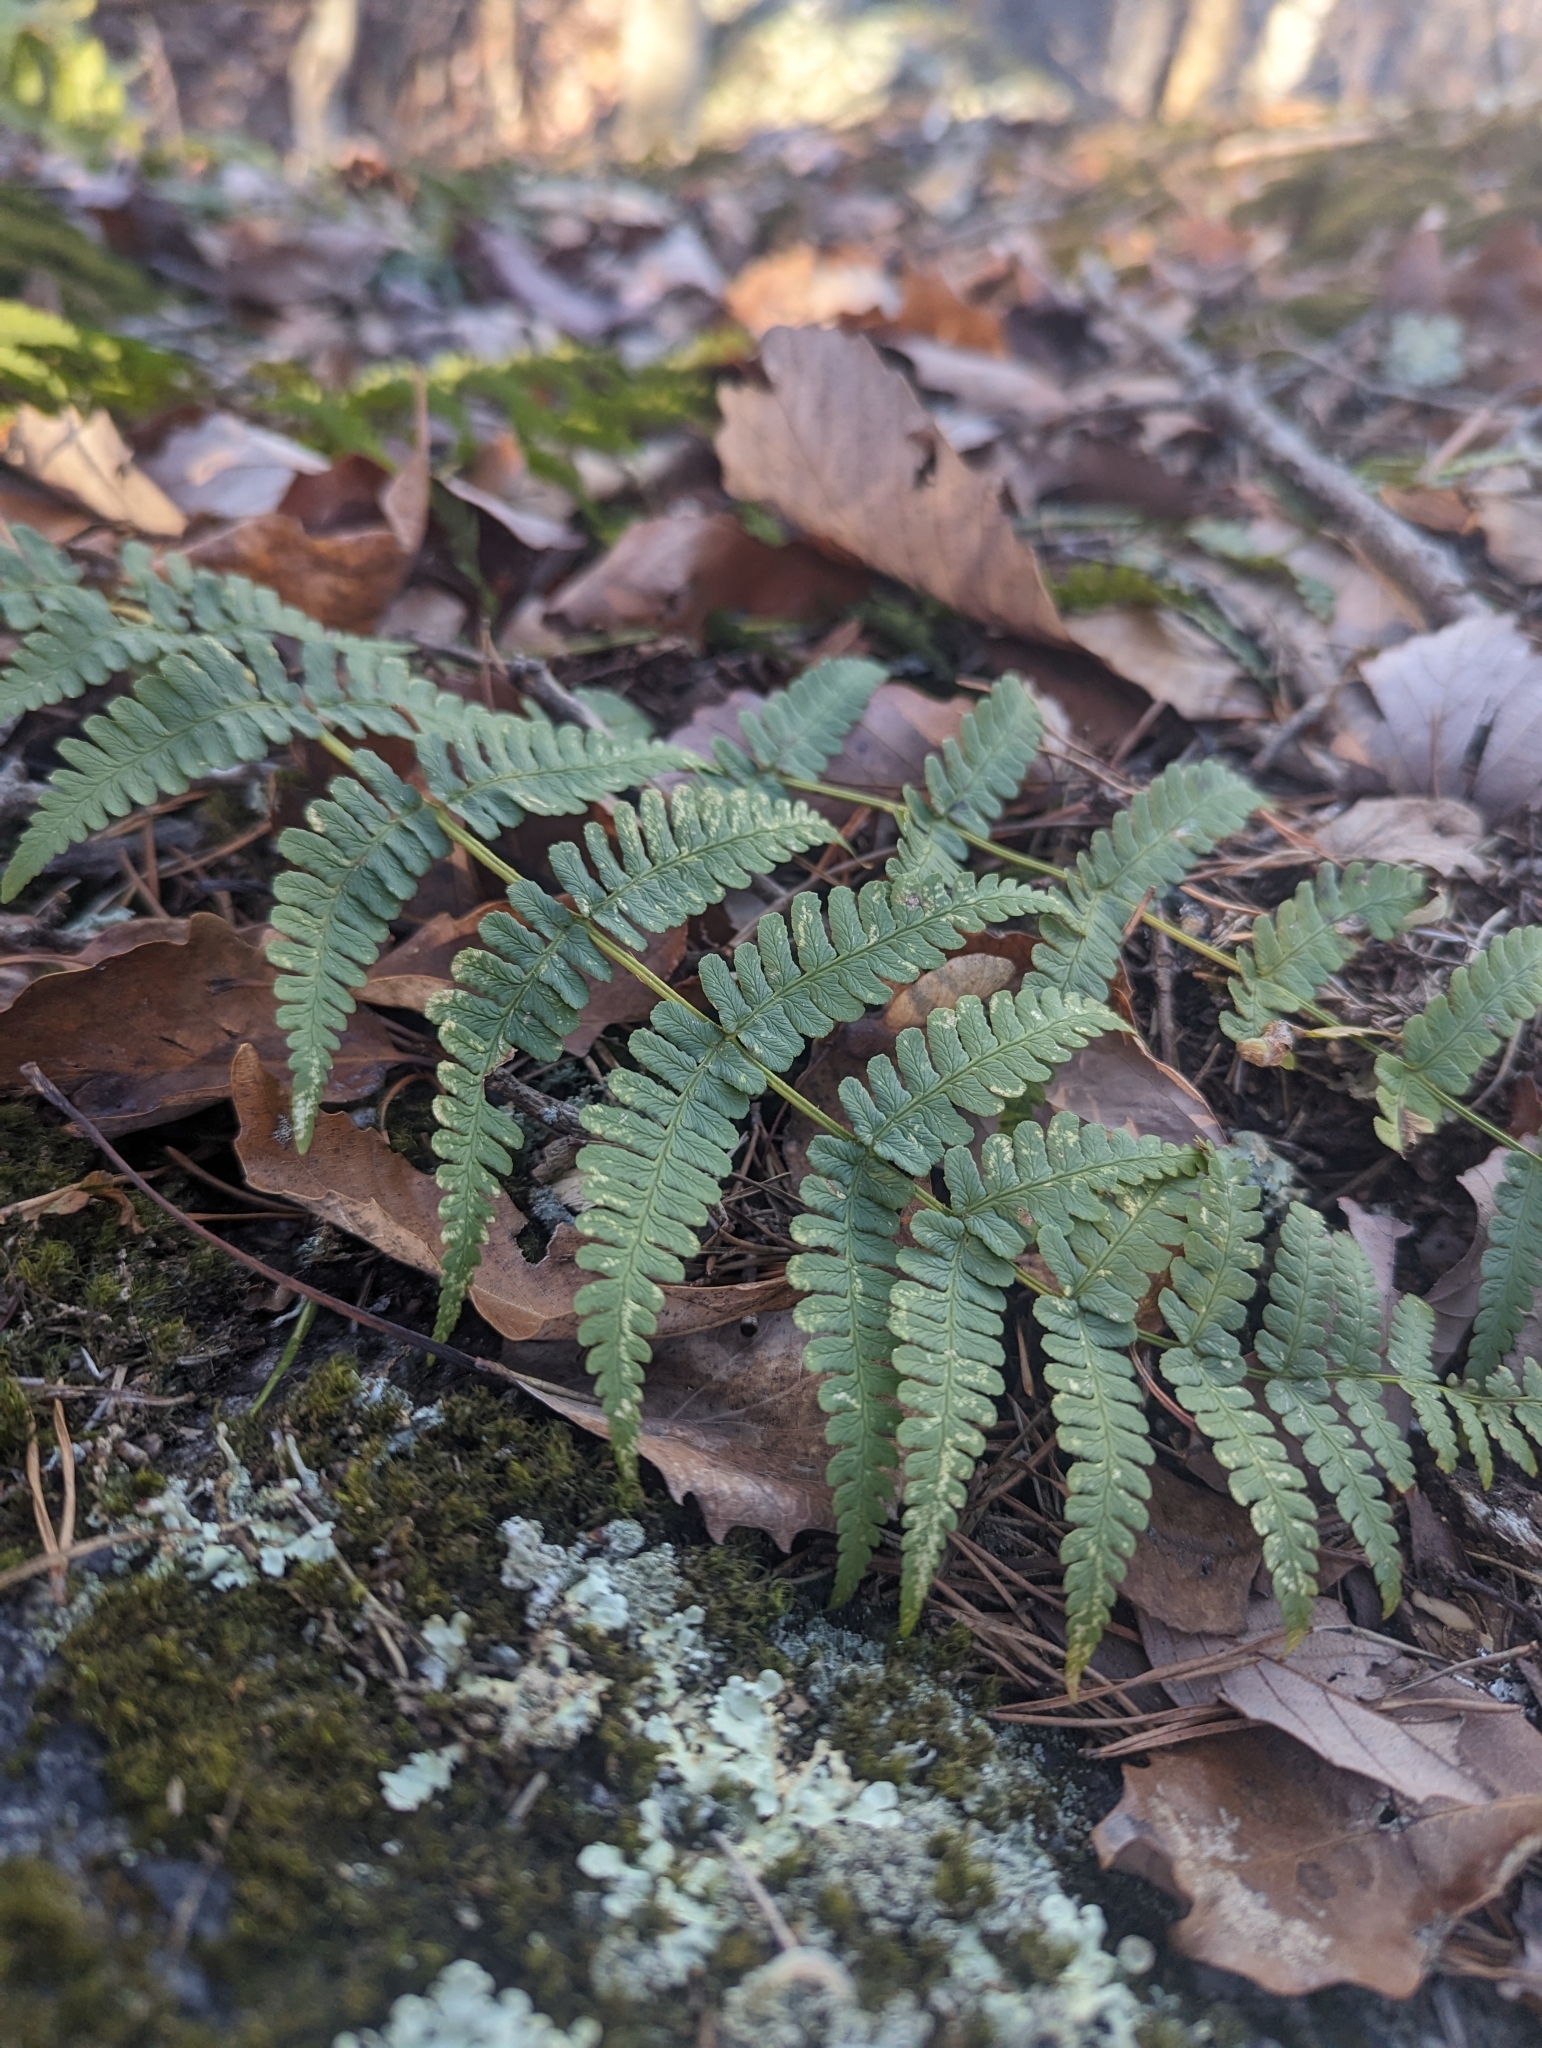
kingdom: Plantae
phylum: Tracheophyta
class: Polypodiopsida
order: Polypodiales
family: Dryopteridaceae
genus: Dryopteris
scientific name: Dryopteris marginalis
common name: Marginal wood fern
